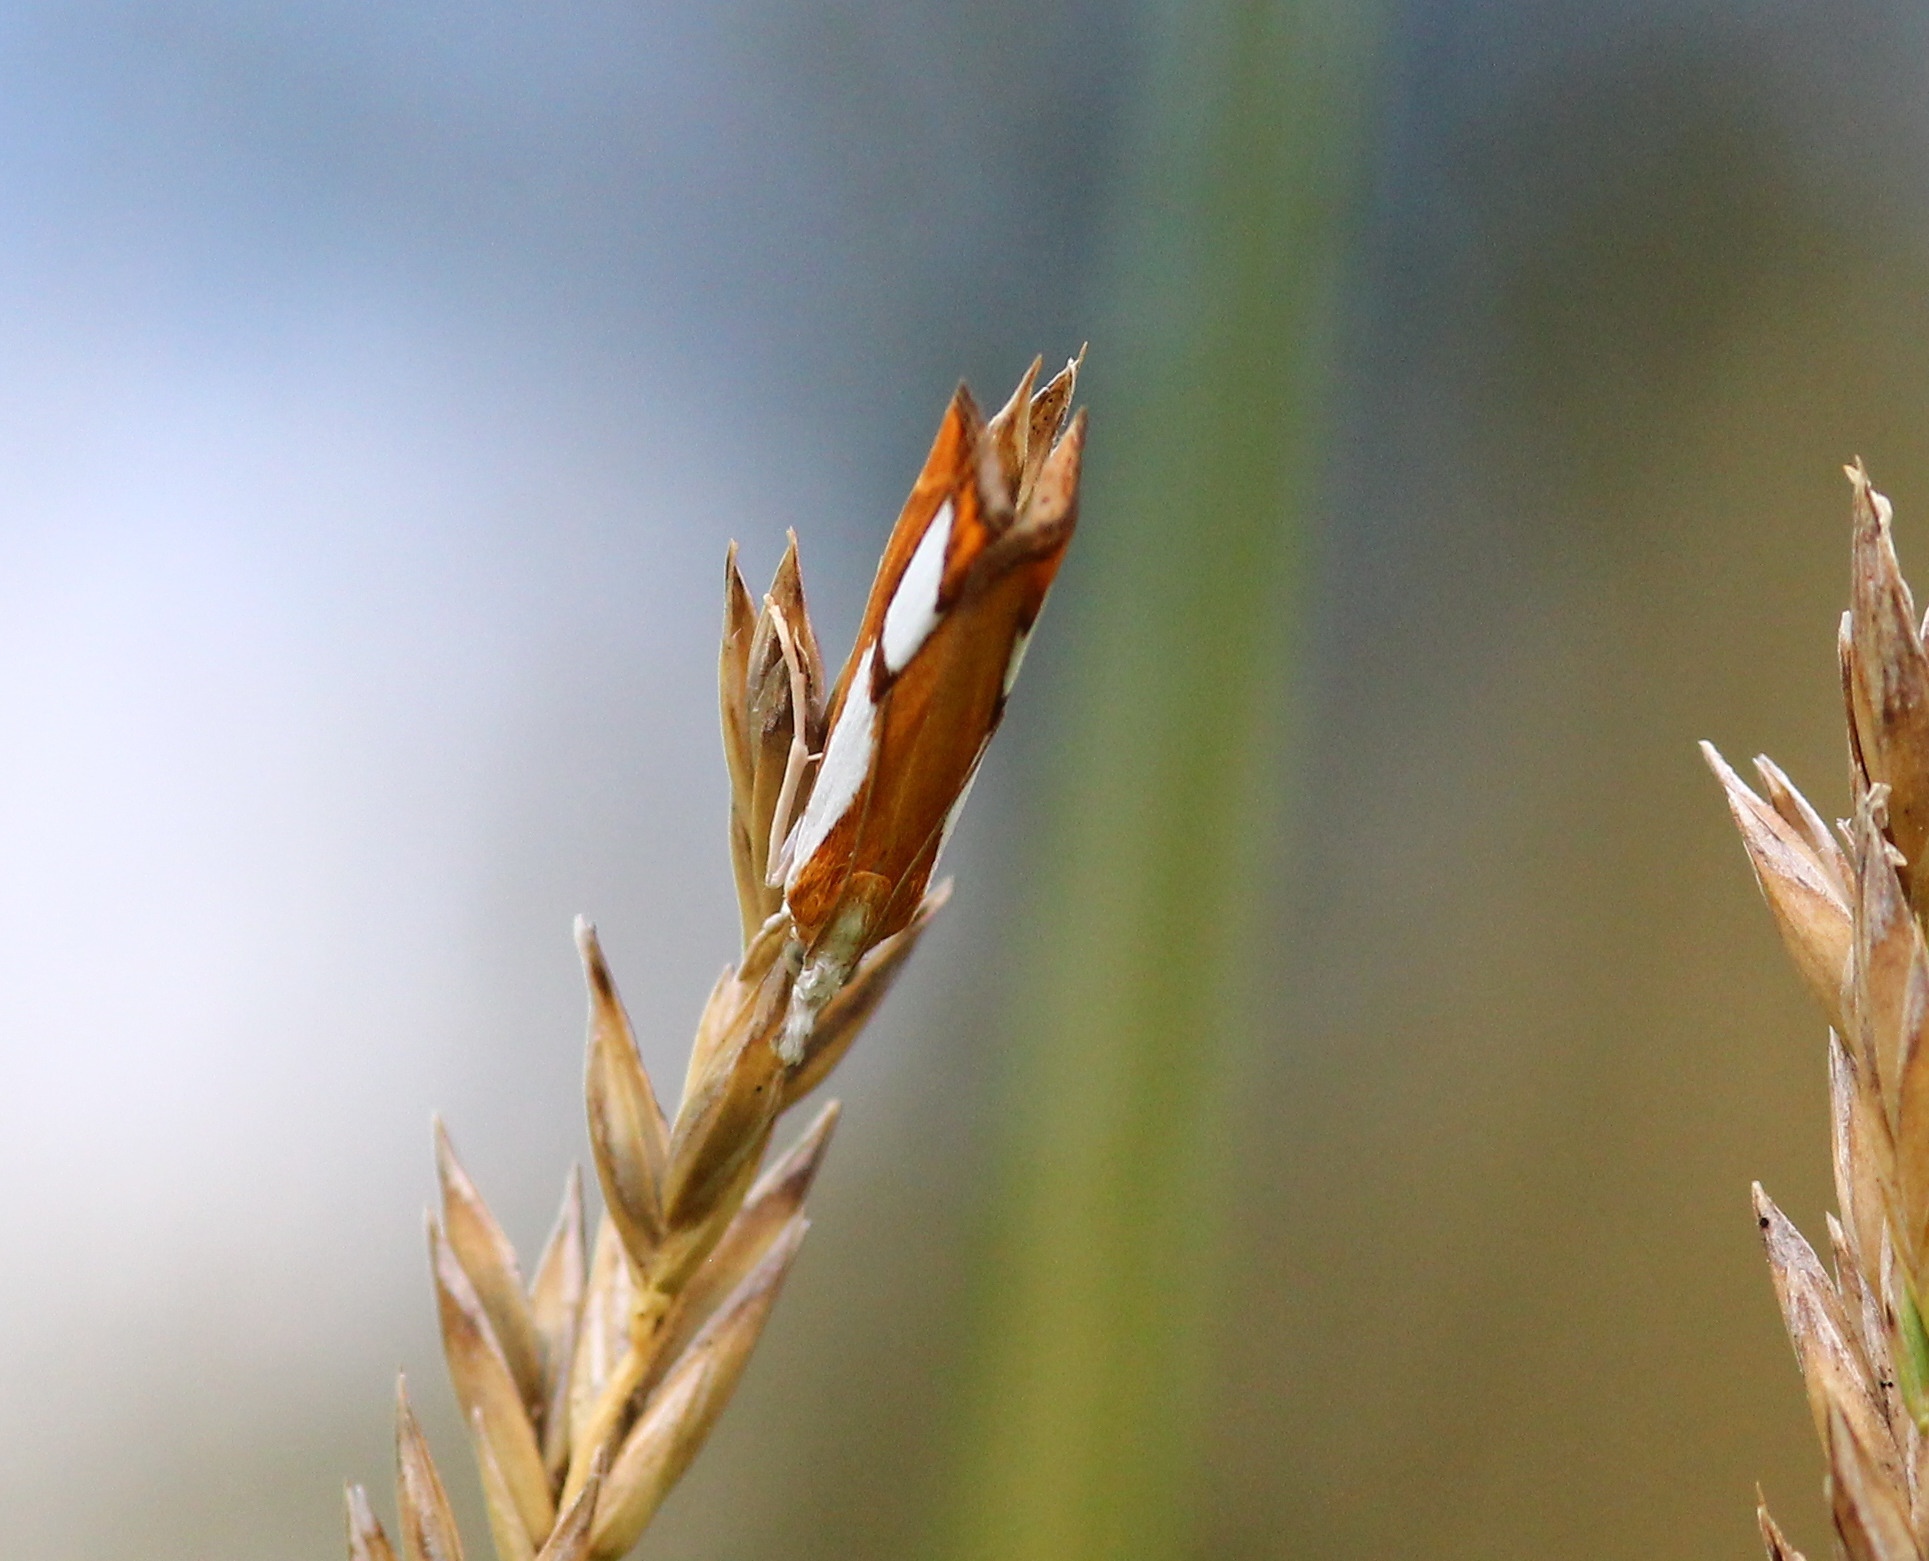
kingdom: Animalia
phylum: Arthropoda
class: Insecta
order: Lepidoptera
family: Crambidae
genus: Catoptria
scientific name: Catoptria pinella
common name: Pearl grass-veneer
